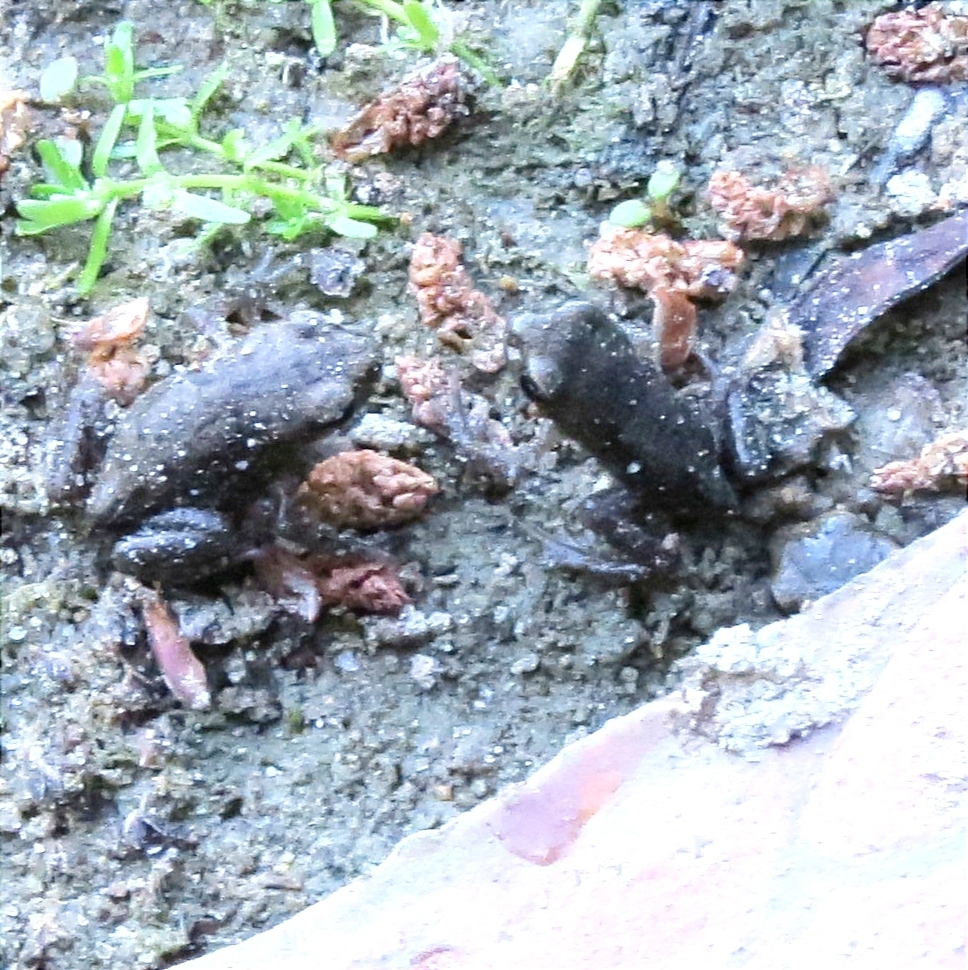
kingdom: Animalia
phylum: Chordata
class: Amphibia
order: Anura
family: Bufonidae
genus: Bufo
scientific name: Bufo bufo
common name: Common toad
